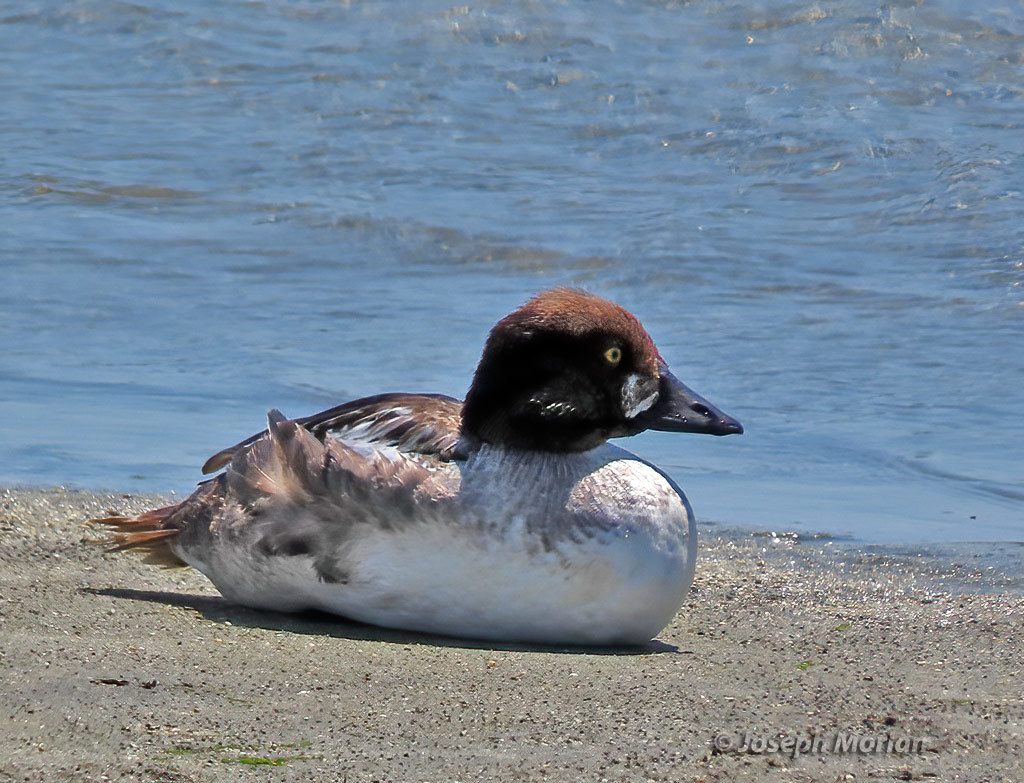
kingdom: Animalia
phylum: Chordata
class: Aves
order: Anseriformes
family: Anatidae
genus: Bucephala
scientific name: Bucephala clangula
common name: Common goldeneye
